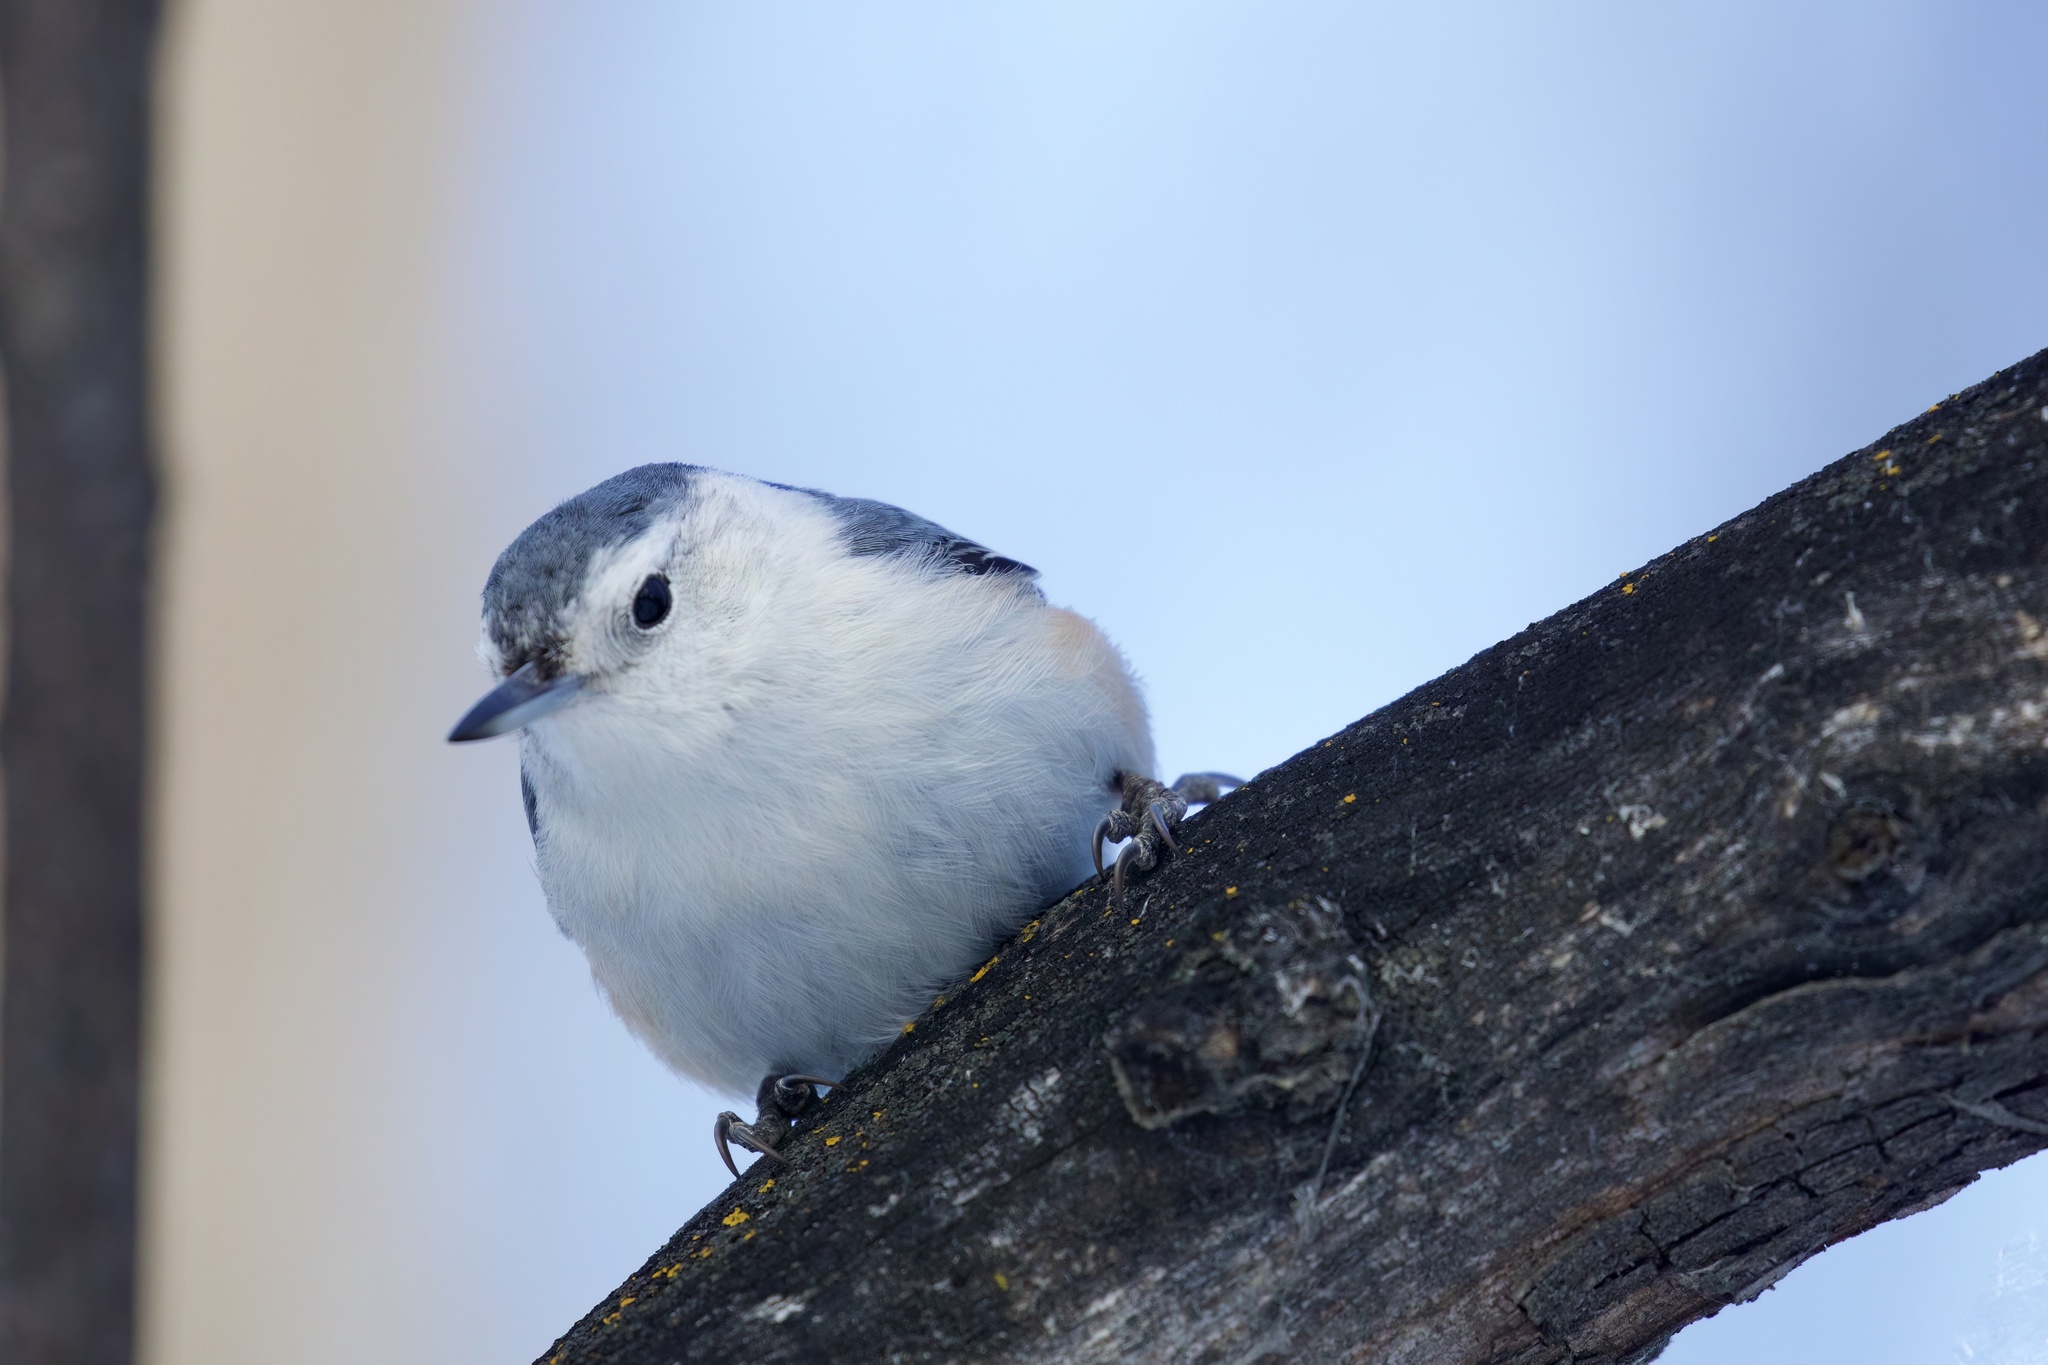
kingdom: Animalia
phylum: Chordata
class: Aves
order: Passeriformes
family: Sittidae
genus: Sitta
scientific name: Sitta carolinensis
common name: White-breasted nuthatch
